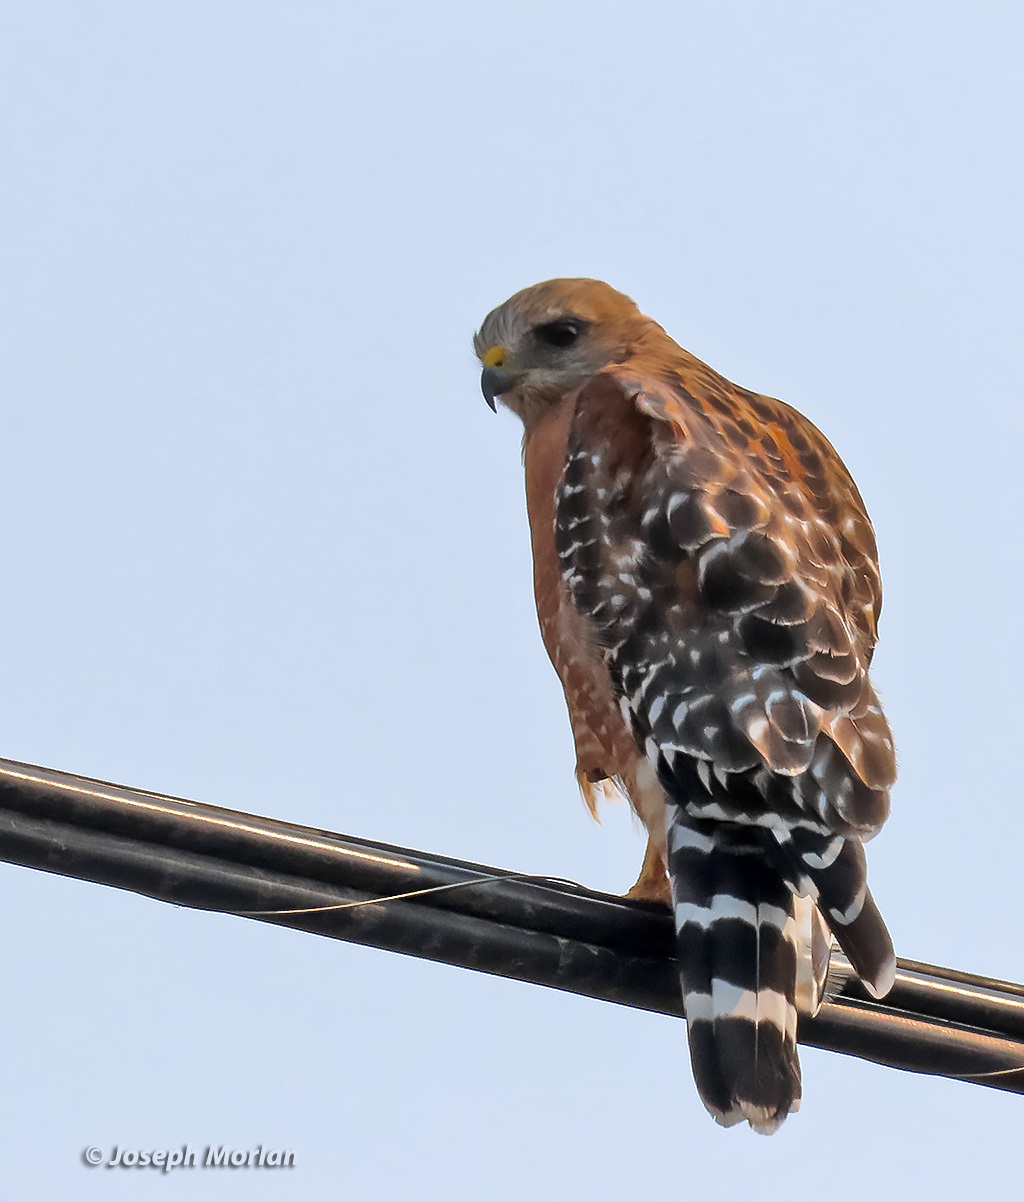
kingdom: Animalia
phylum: Chordata
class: Aves
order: Accipitriformes
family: Accipitridae
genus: Buteo
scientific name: Buteo lineatus
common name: Red-shouldered hawk
